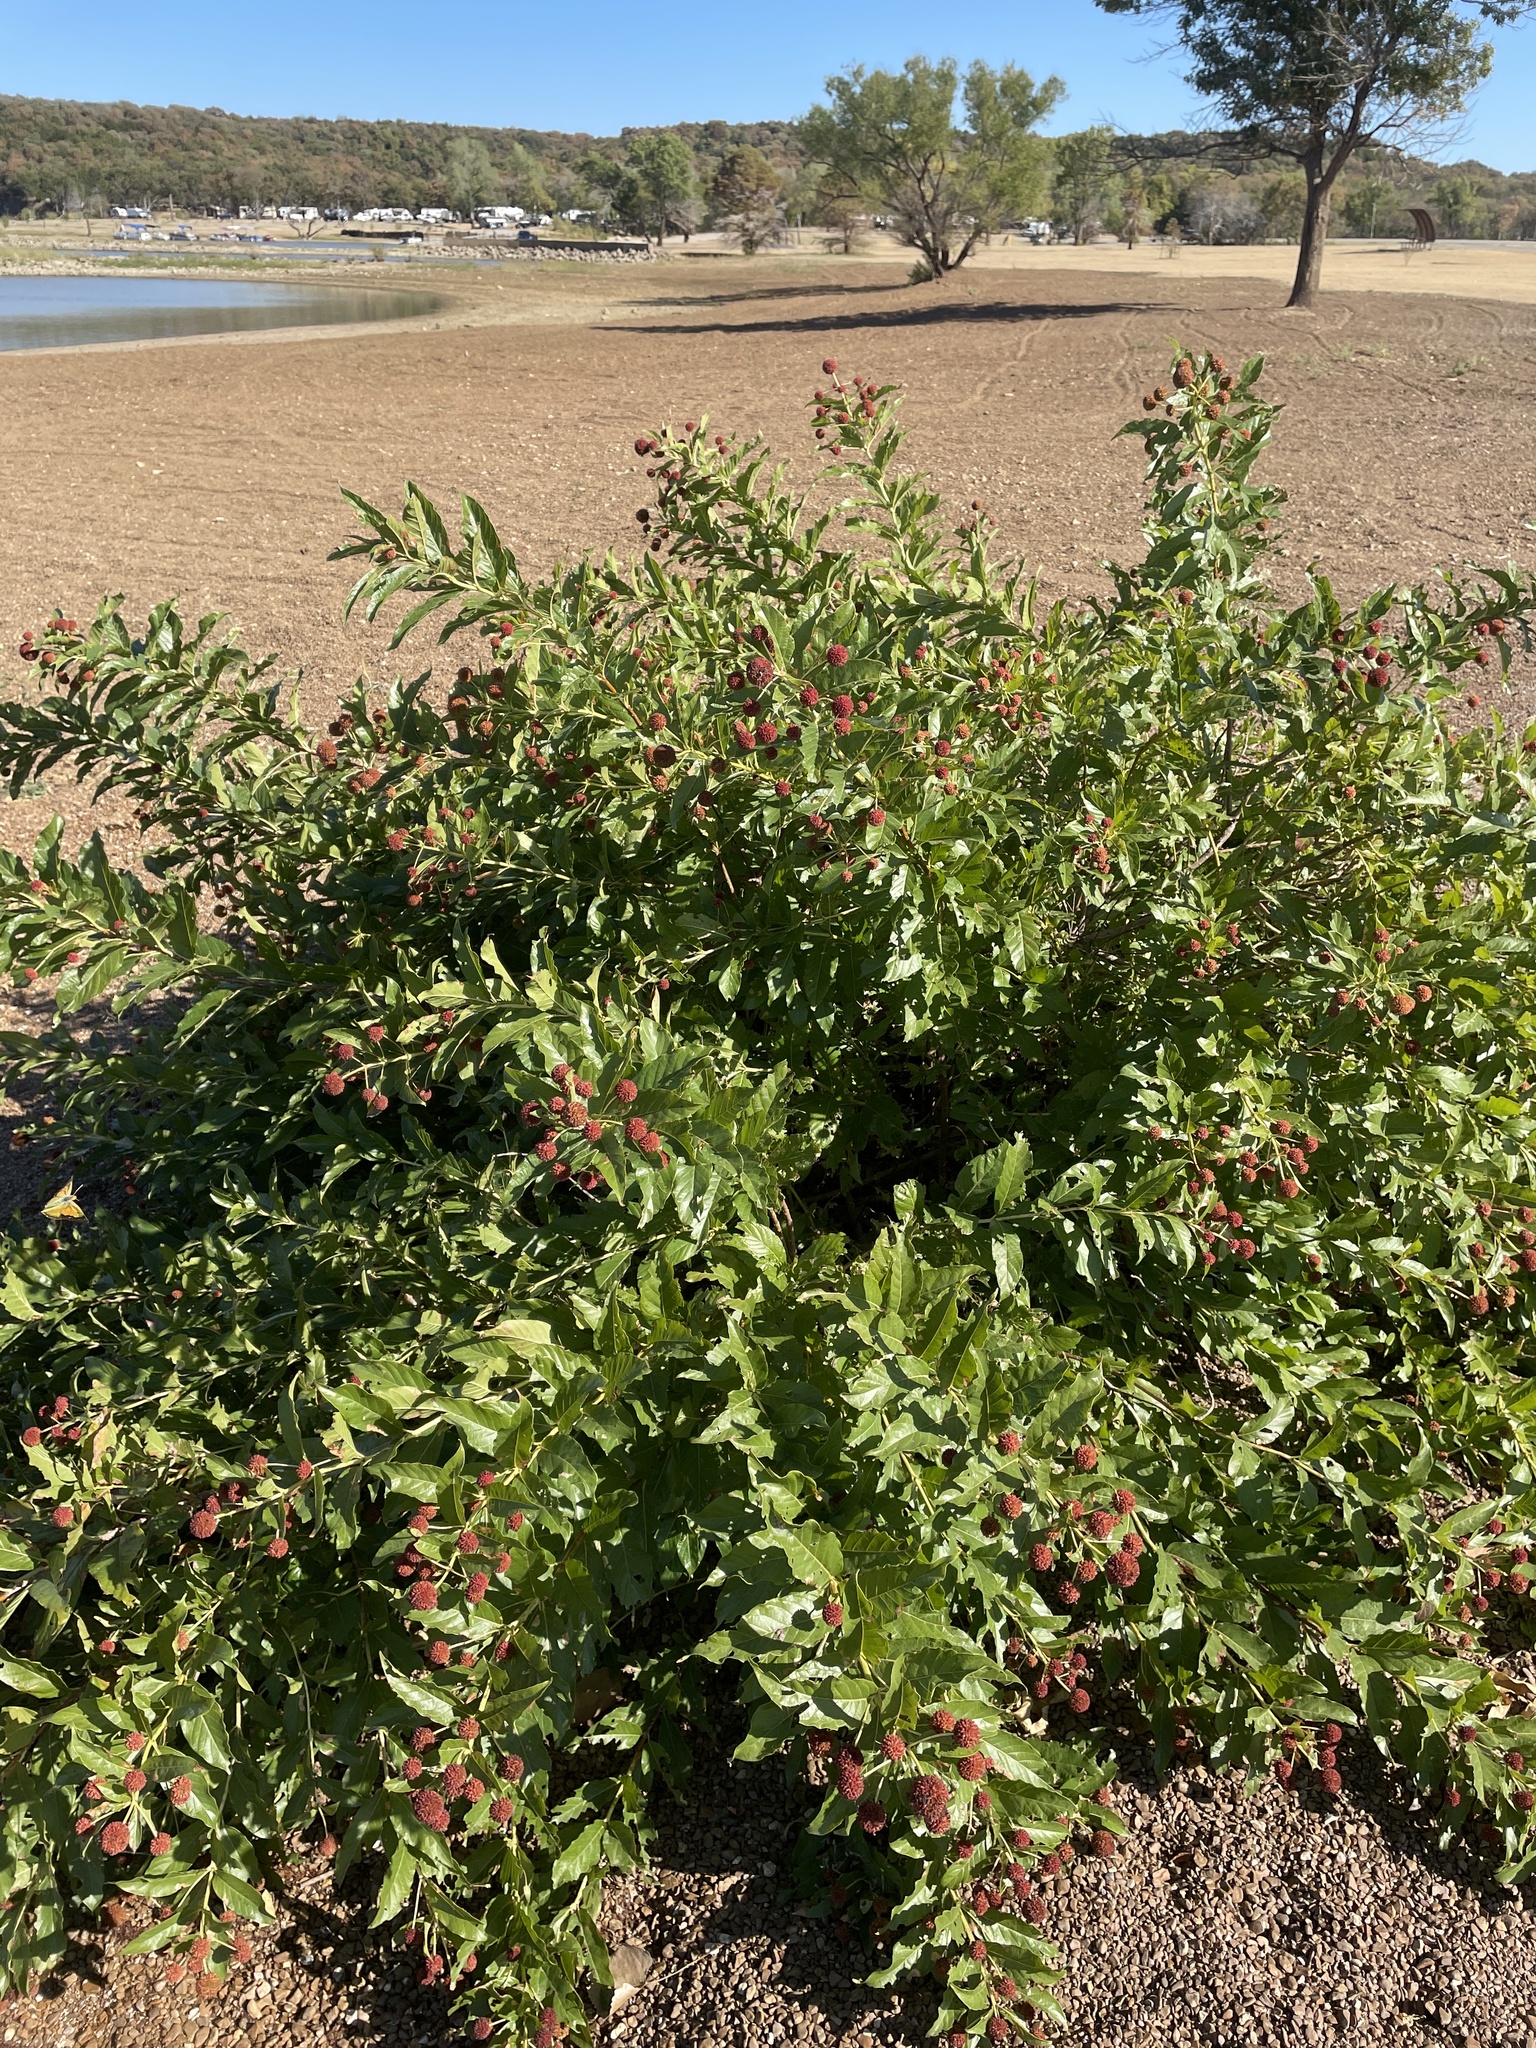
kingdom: Plantae
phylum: Tracheophyta
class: Magnoliopsida
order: Gentianales
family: Rubiaceae
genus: Cephalanthus
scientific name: Cephalanthus occidentalis
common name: Button-willow
